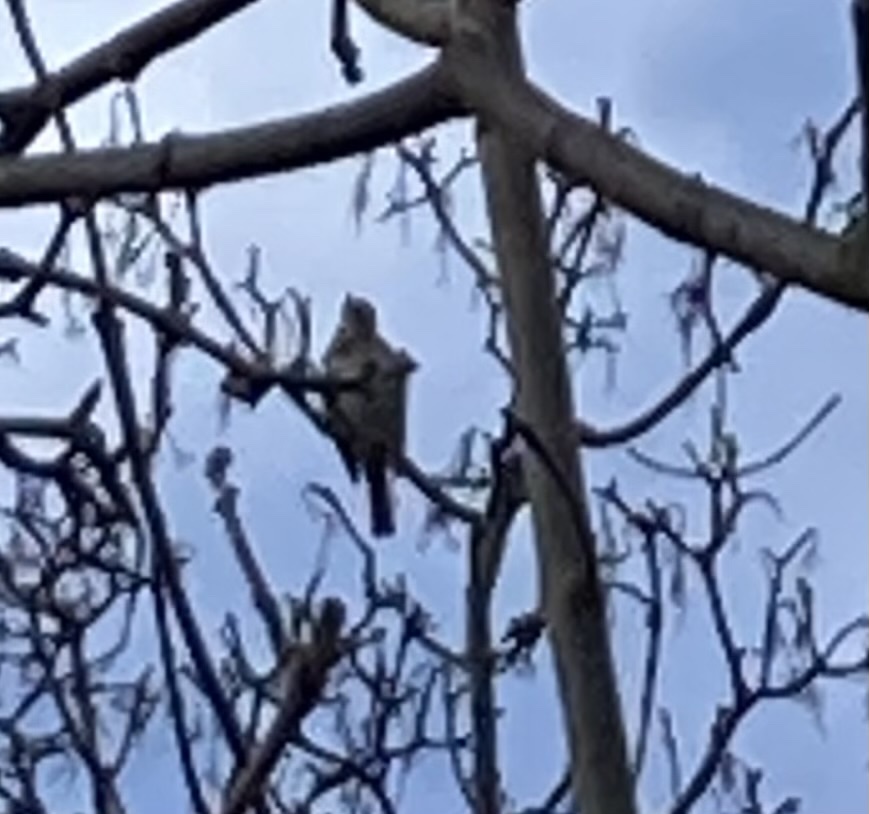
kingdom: Animalia
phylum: Chordata
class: Aves
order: Passeriformes
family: Turdidae
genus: Turdus
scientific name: Turdus philomelos
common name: Song thrush
